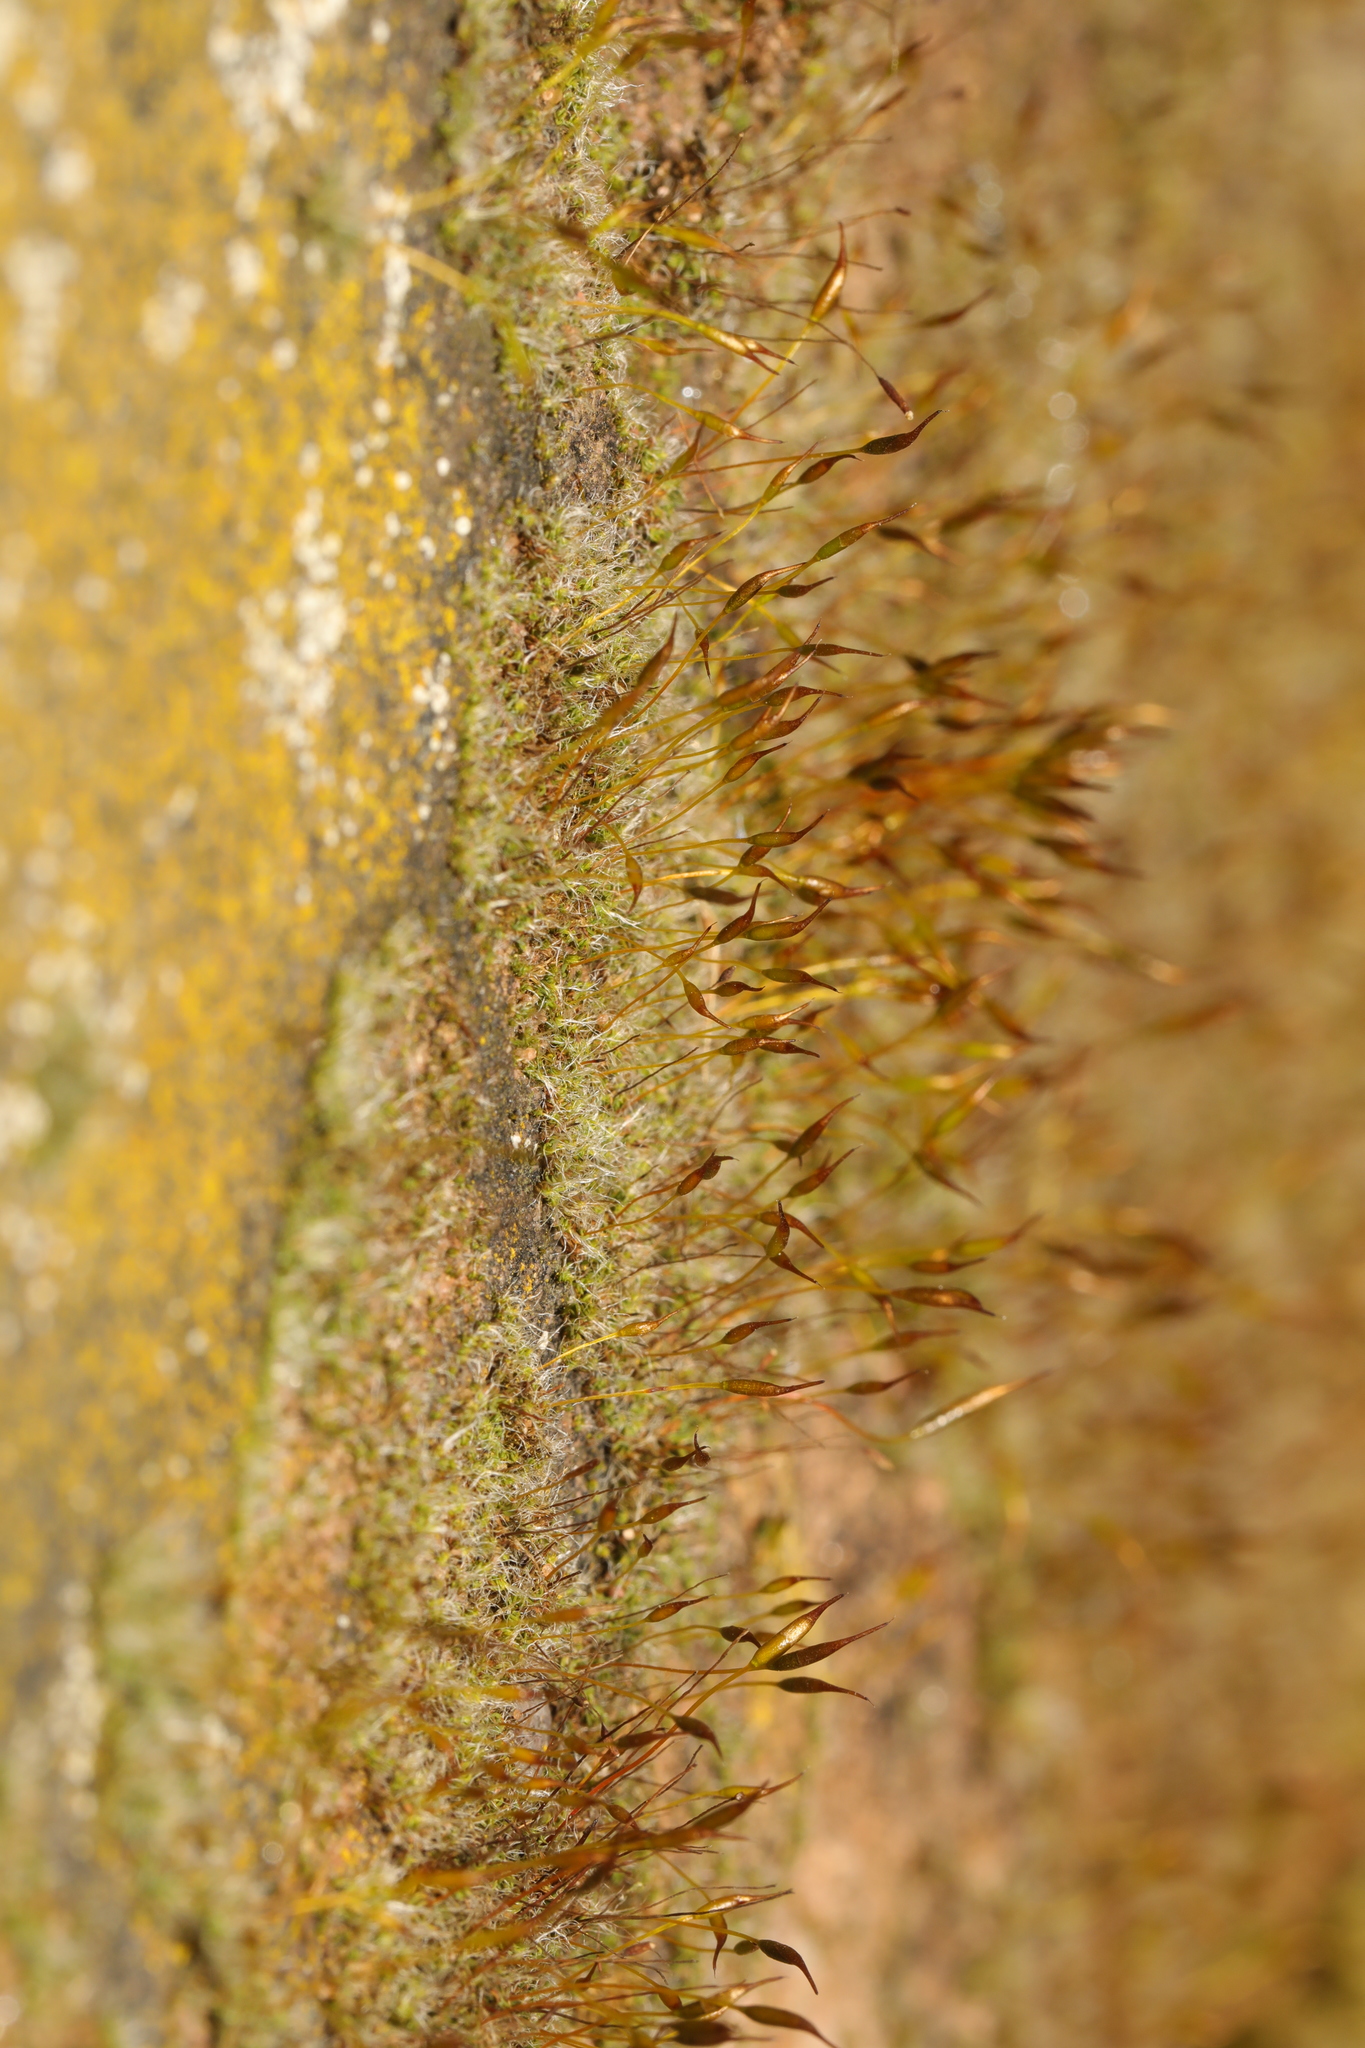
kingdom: Plantae
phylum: Bryophyta
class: Bryopsida
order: Pottiales
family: Pottiaceae
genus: Tortula
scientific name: Tortula muralis
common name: Wall screw-moss
